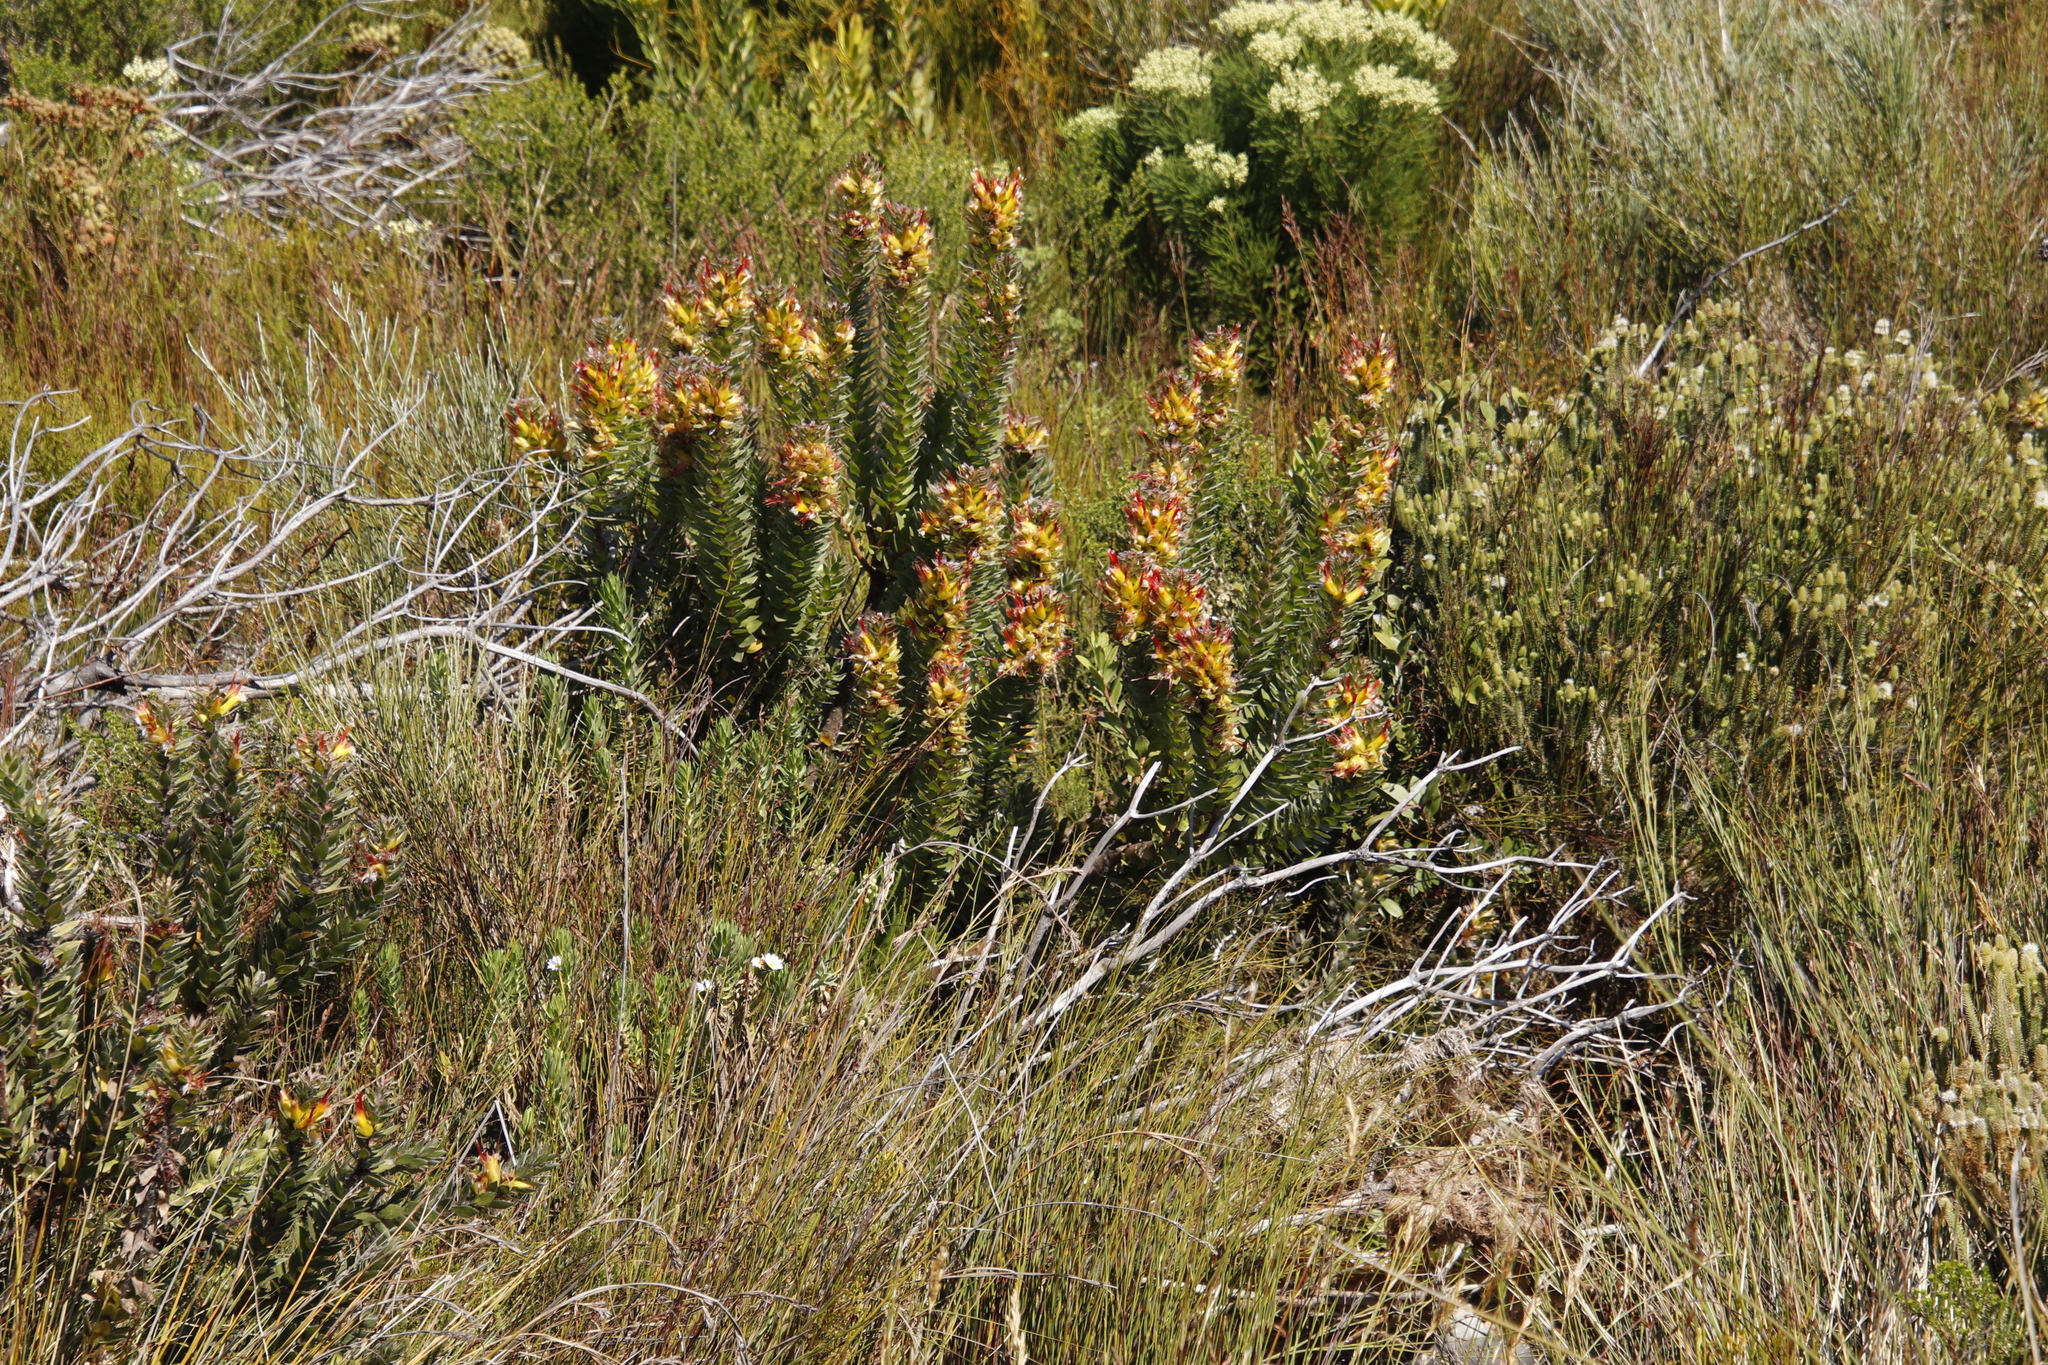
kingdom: Plantae
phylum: Tracheophyta
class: Magnoliopsida
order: Proteales
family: Proteaceae
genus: Mimetes
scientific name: Mimetes hirtus
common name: Marsh pagoda
